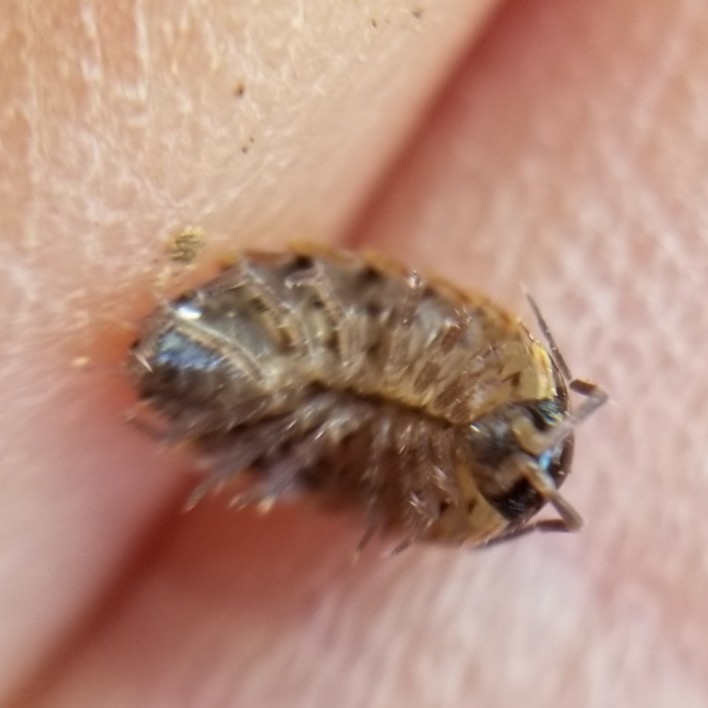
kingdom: Animalia
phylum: Arthropoda
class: Malacostraca
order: Isopoda
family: Philosciidae
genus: Philoscia
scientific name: Philoscia muscorum
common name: Common striped woodlouse
